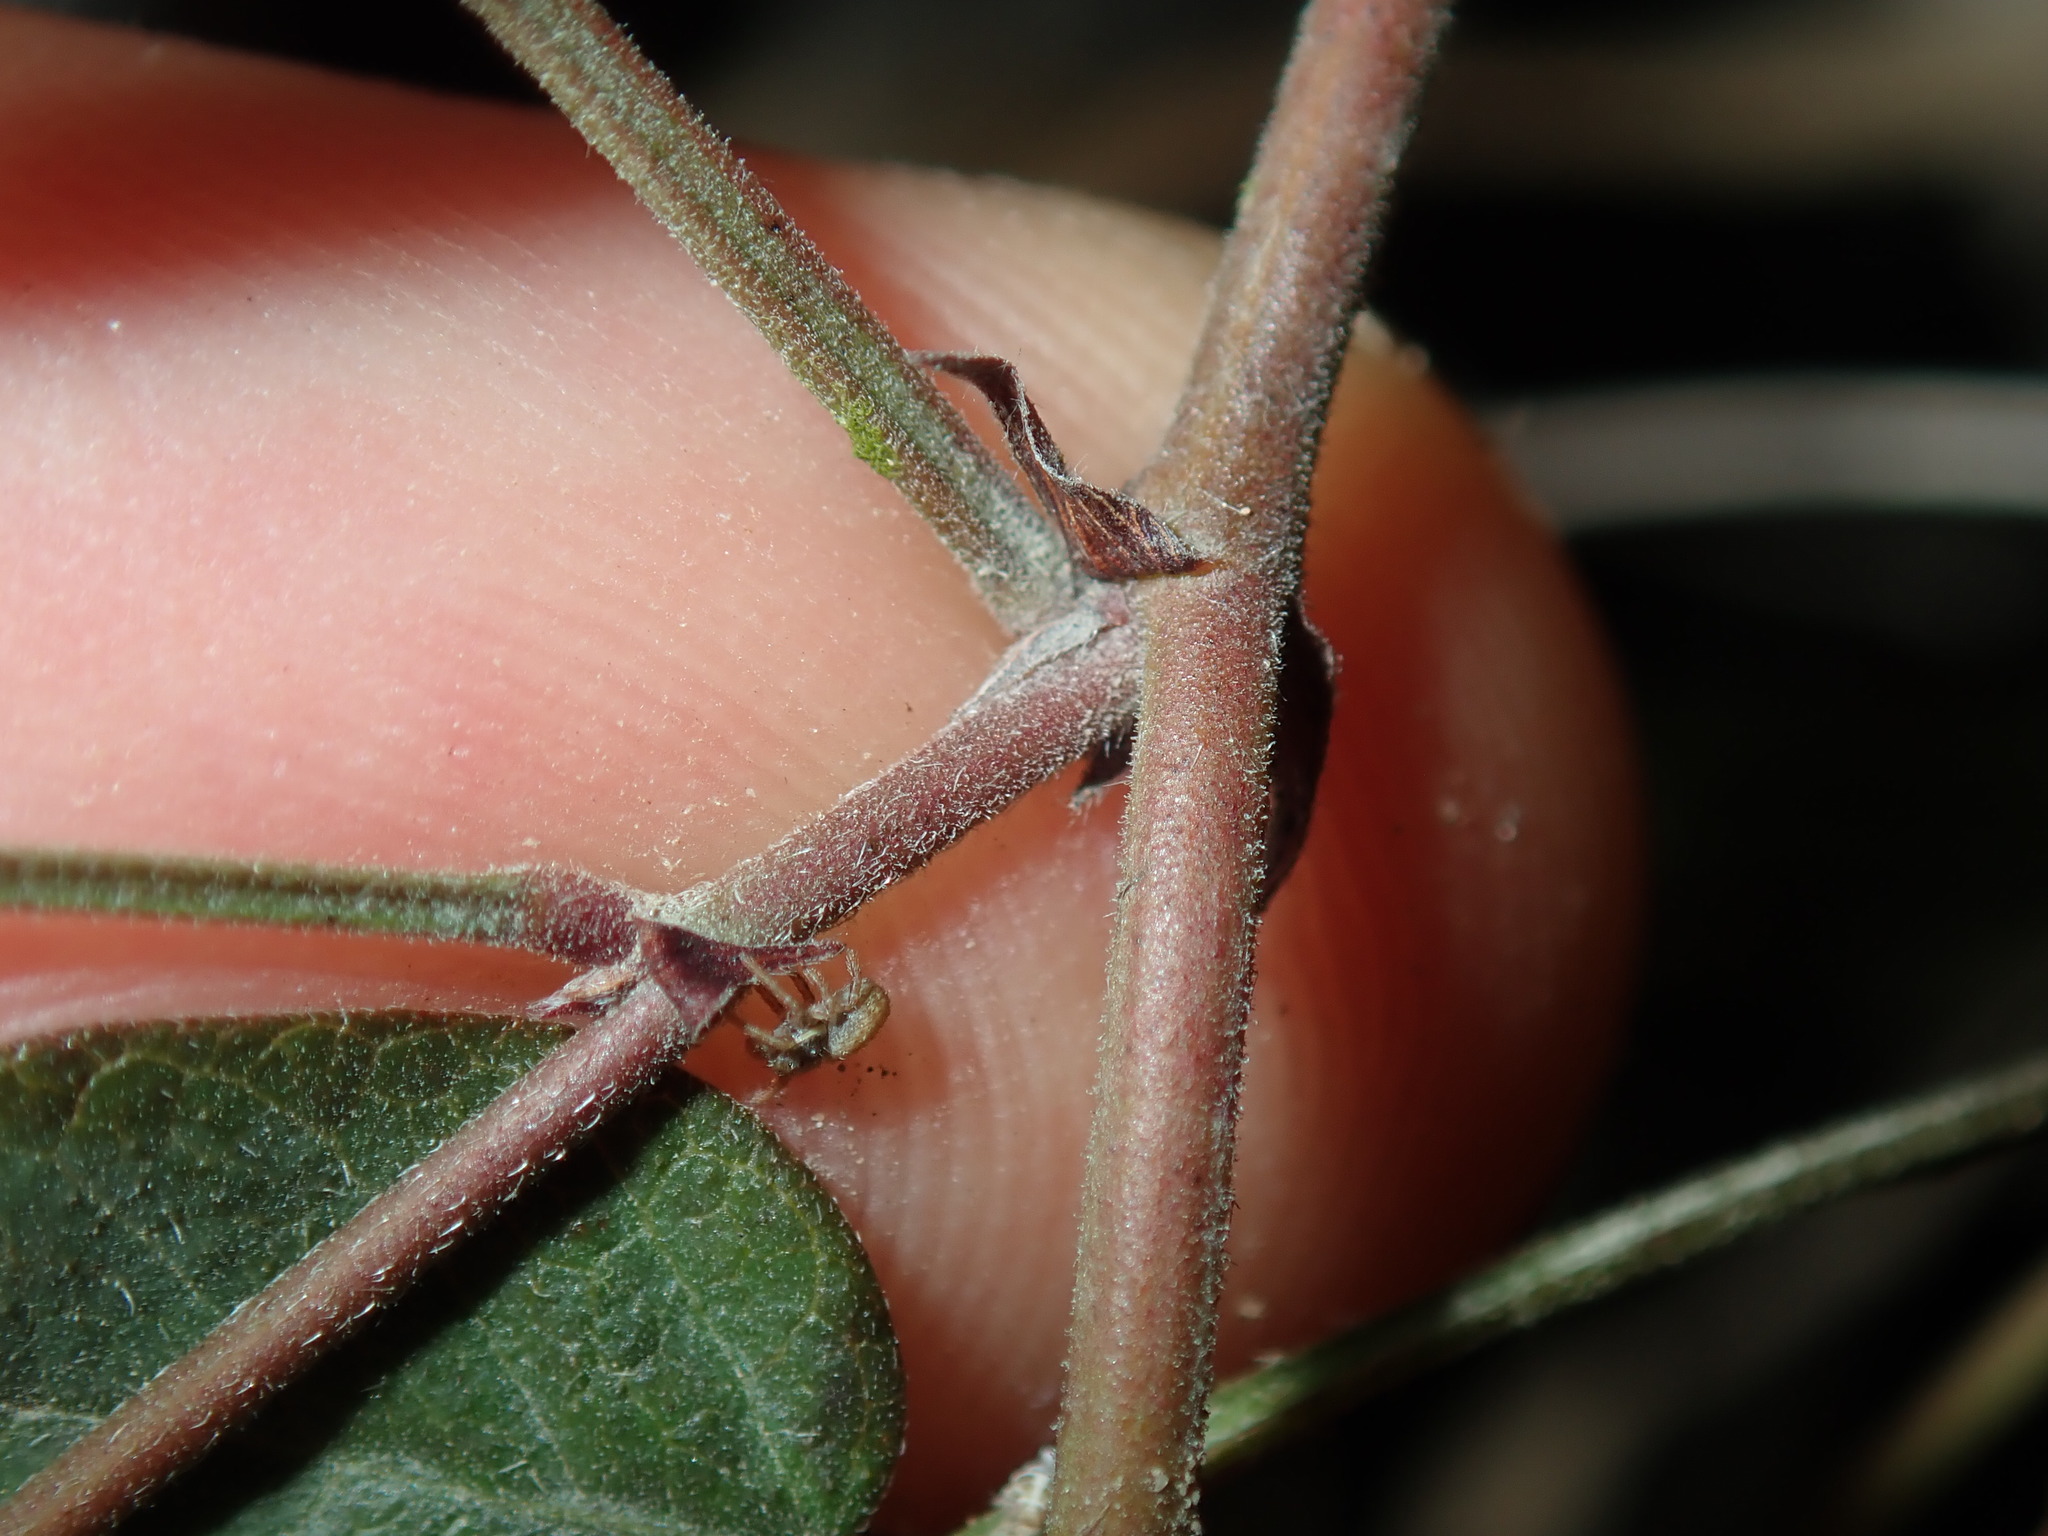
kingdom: Plantae
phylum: Tracheophyta
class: Magnoliopsida
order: Fabales
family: Fabaceae
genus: Grona
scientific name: Grona varians
